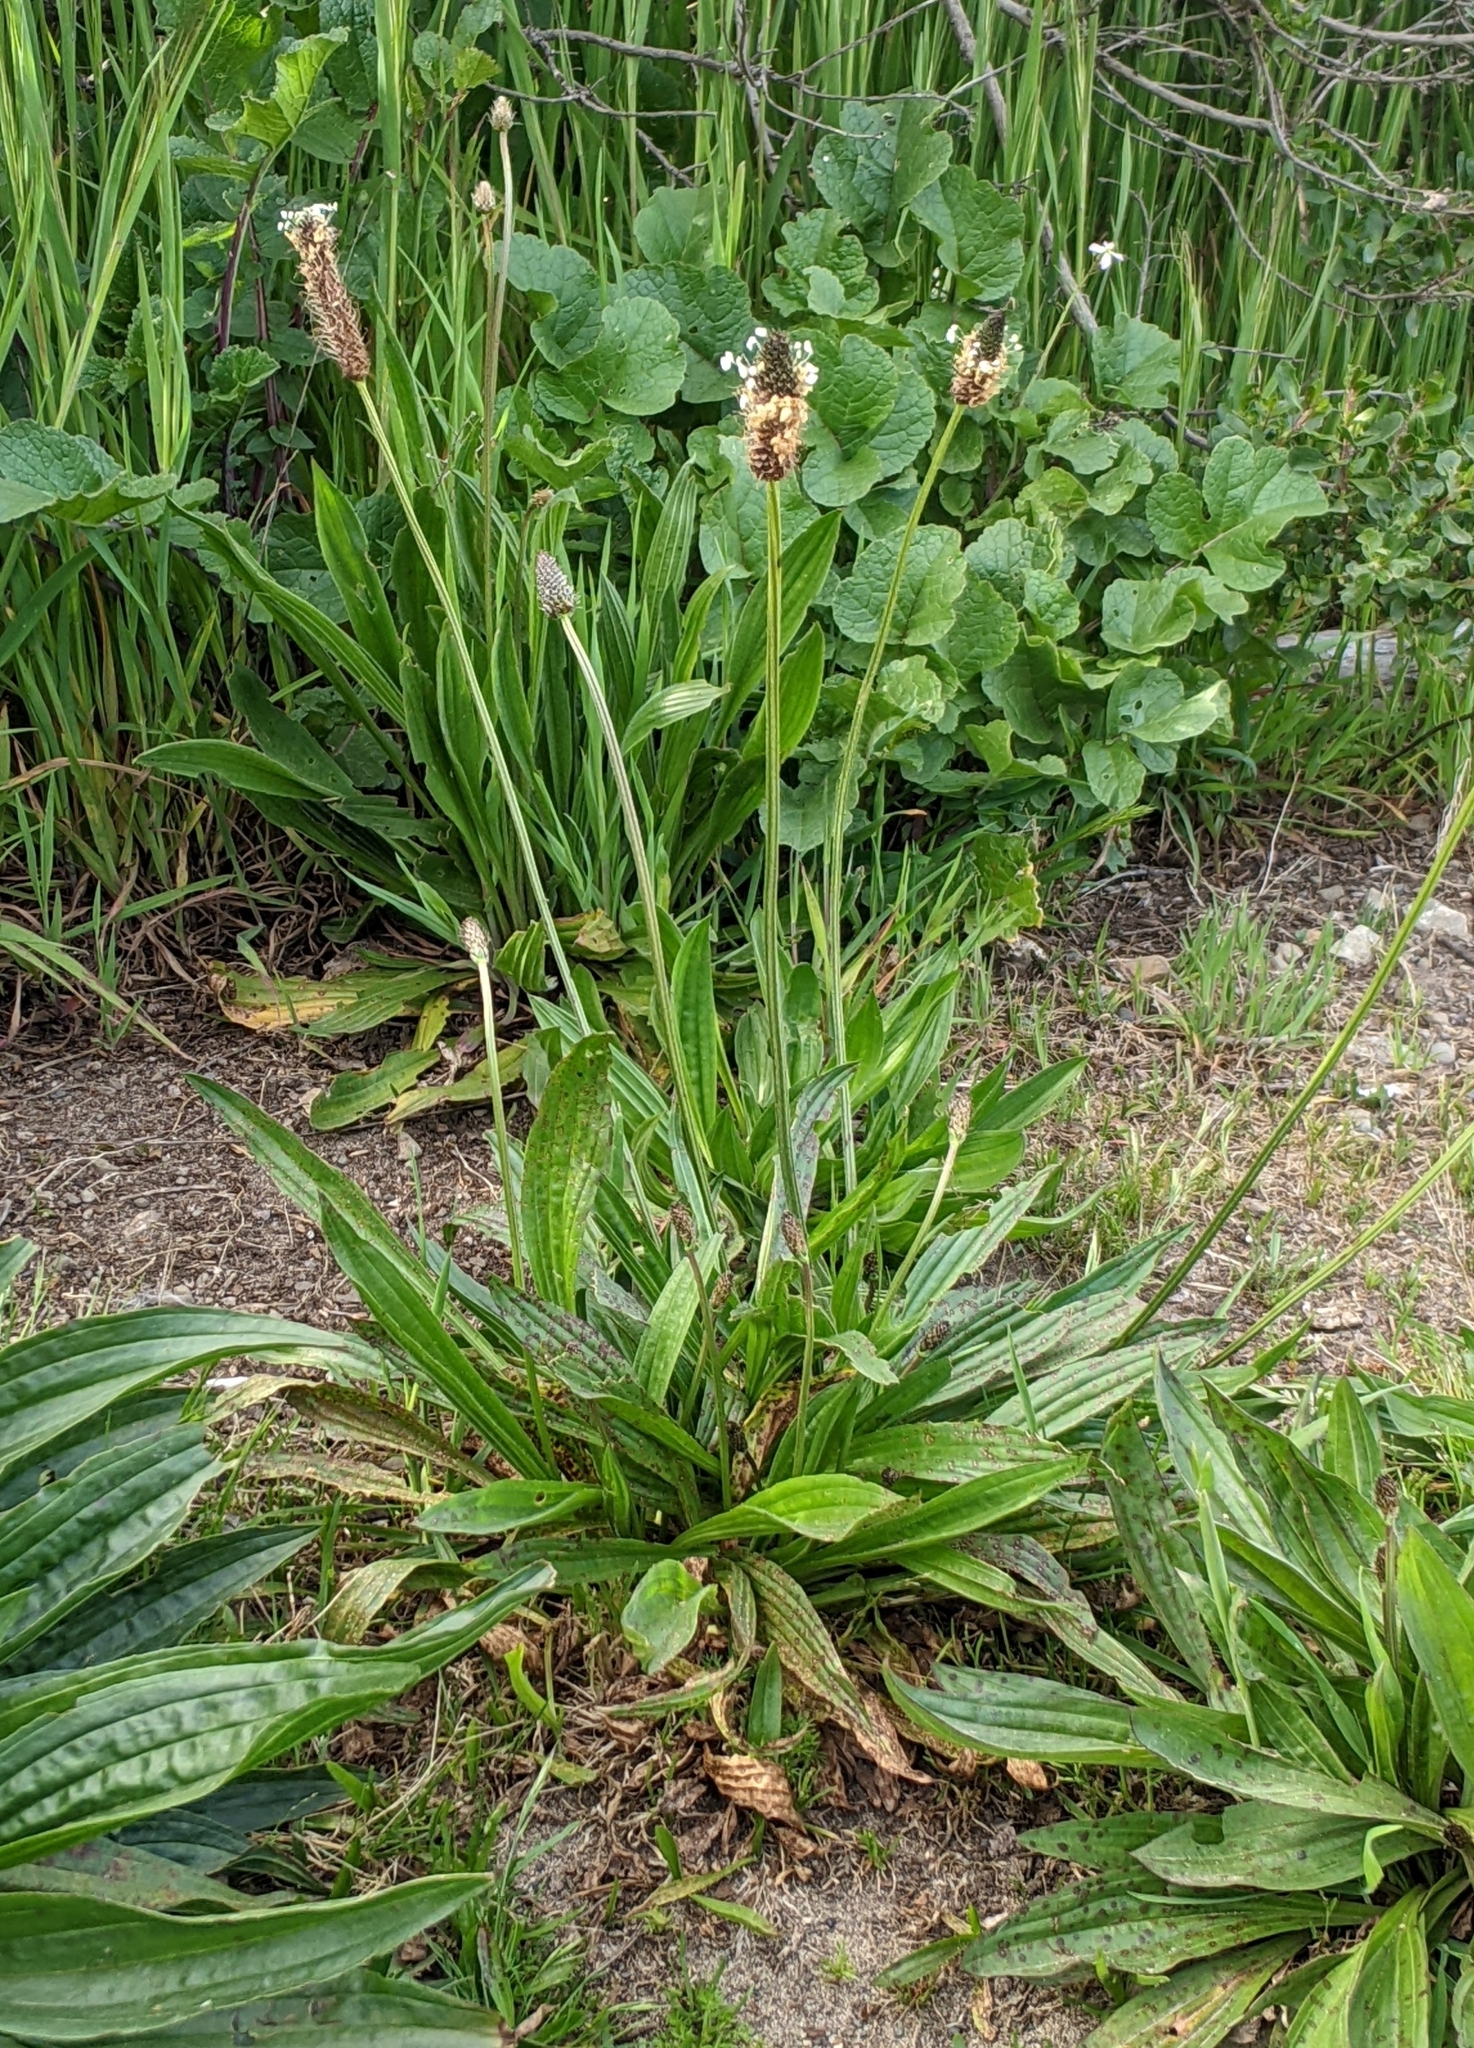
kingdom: Plantae
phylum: Tracheophyta
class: Magnoliopsida
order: Lamiales
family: Plantaginaceae
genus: Plantago
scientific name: Plantago lanceolata
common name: Ribwort plantain
